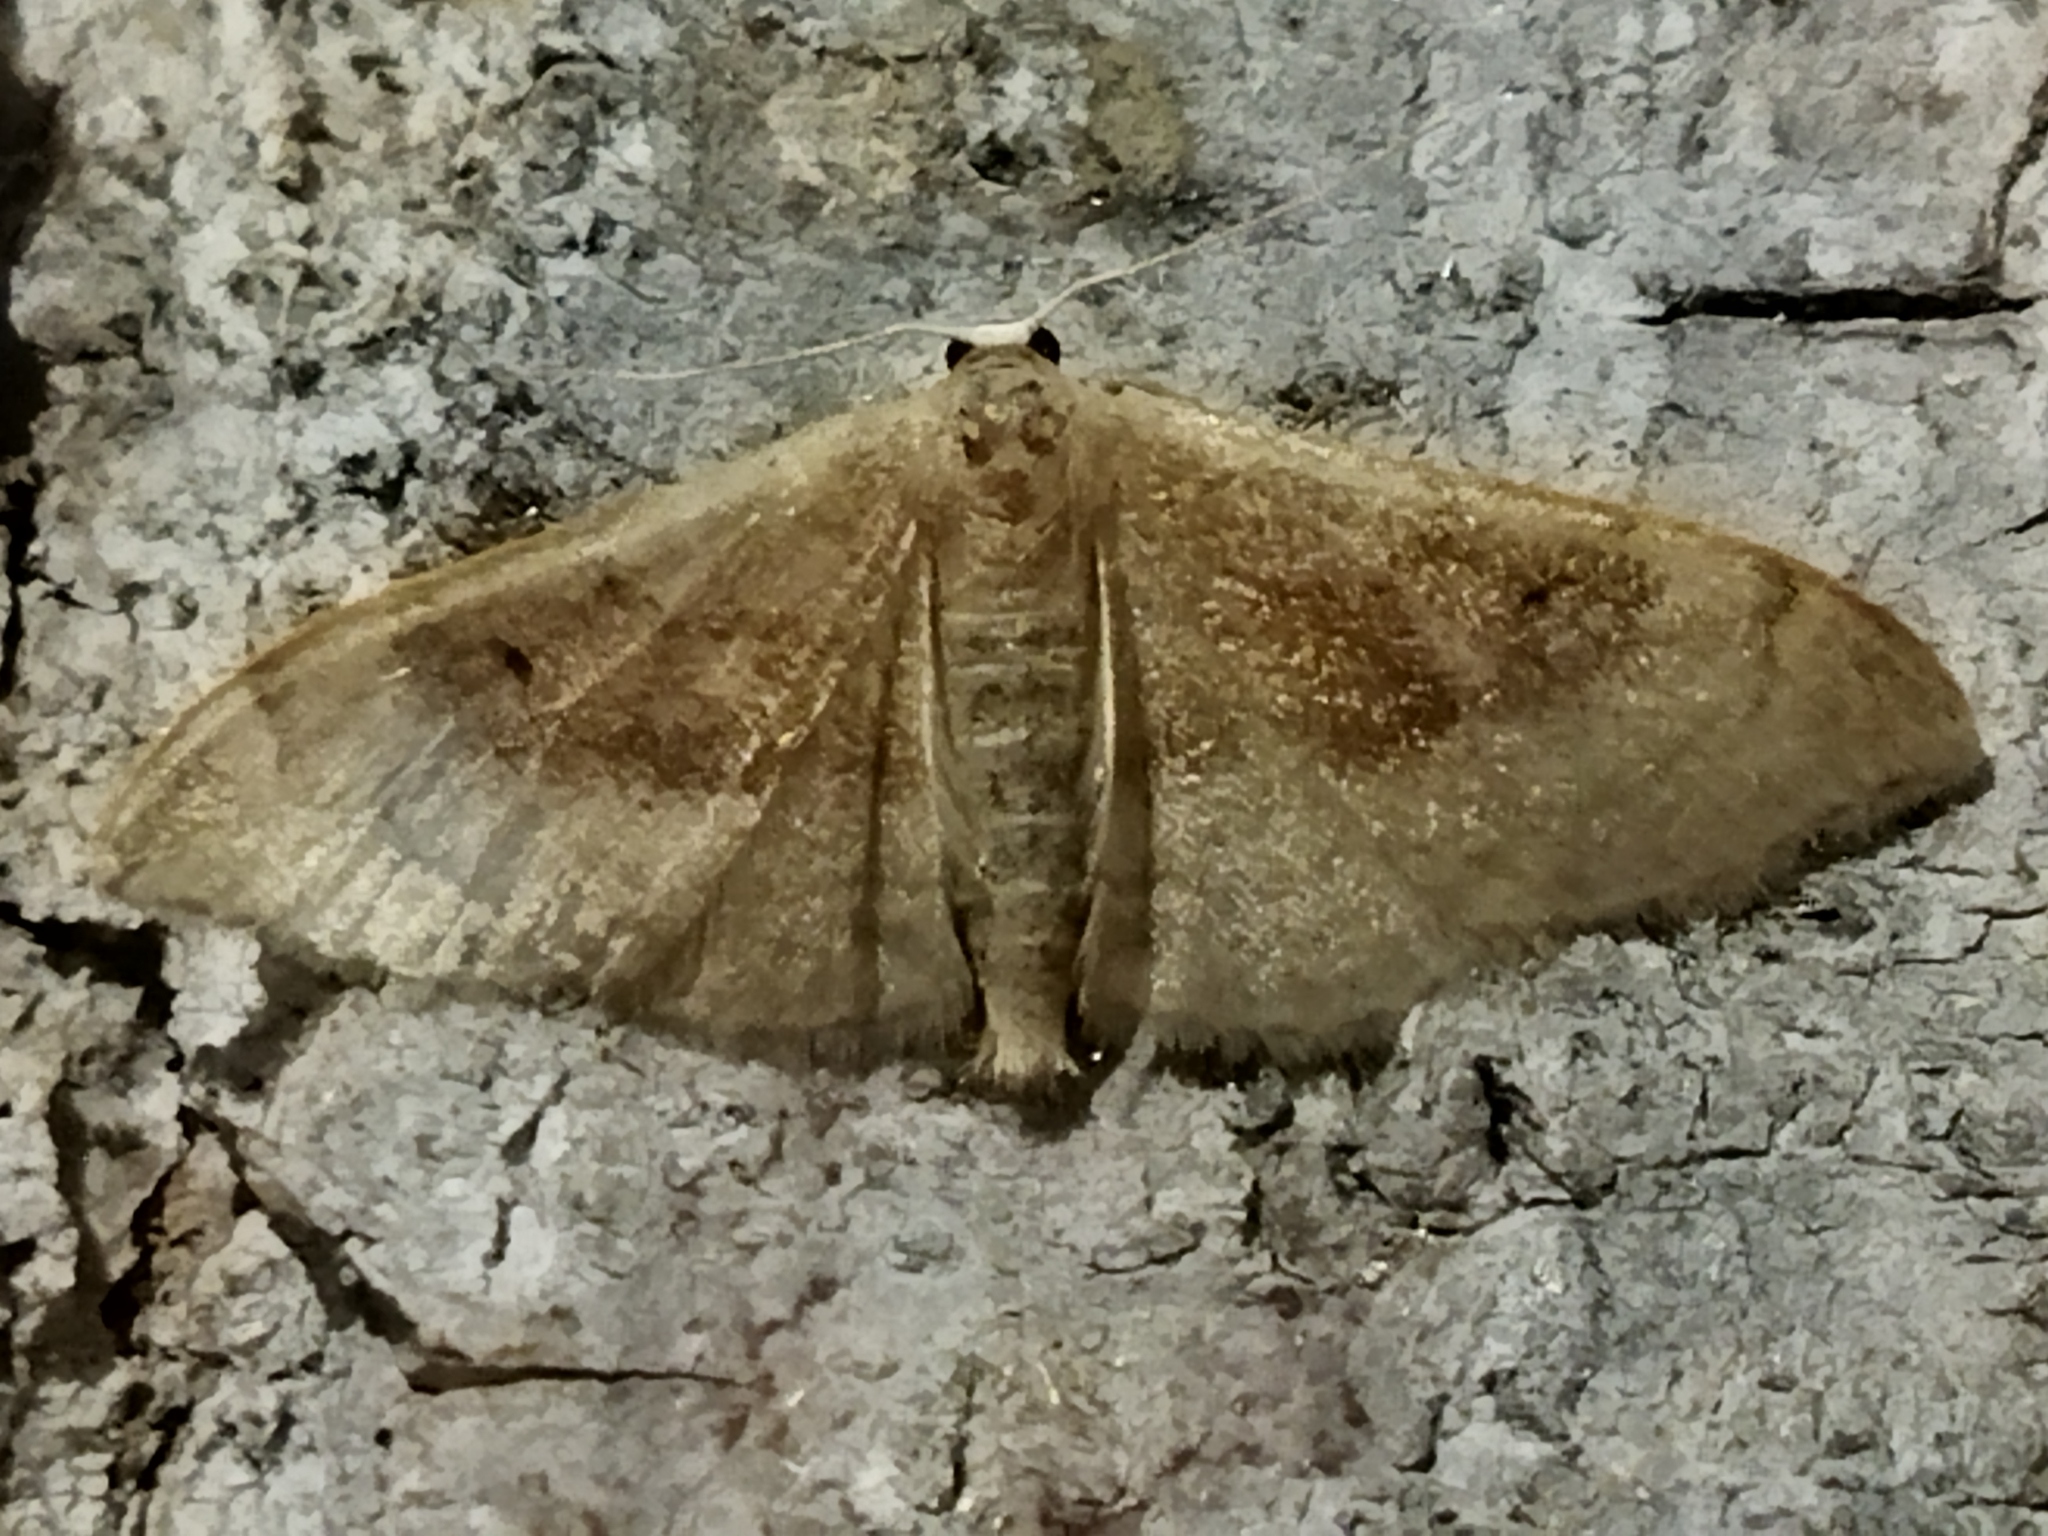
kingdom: Animalia
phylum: Arthropoda
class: Insecta
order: Lepidoptera
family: Geometridae
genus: Idaea
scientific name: Idaea degeneraria
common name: Portland ribbon wave
